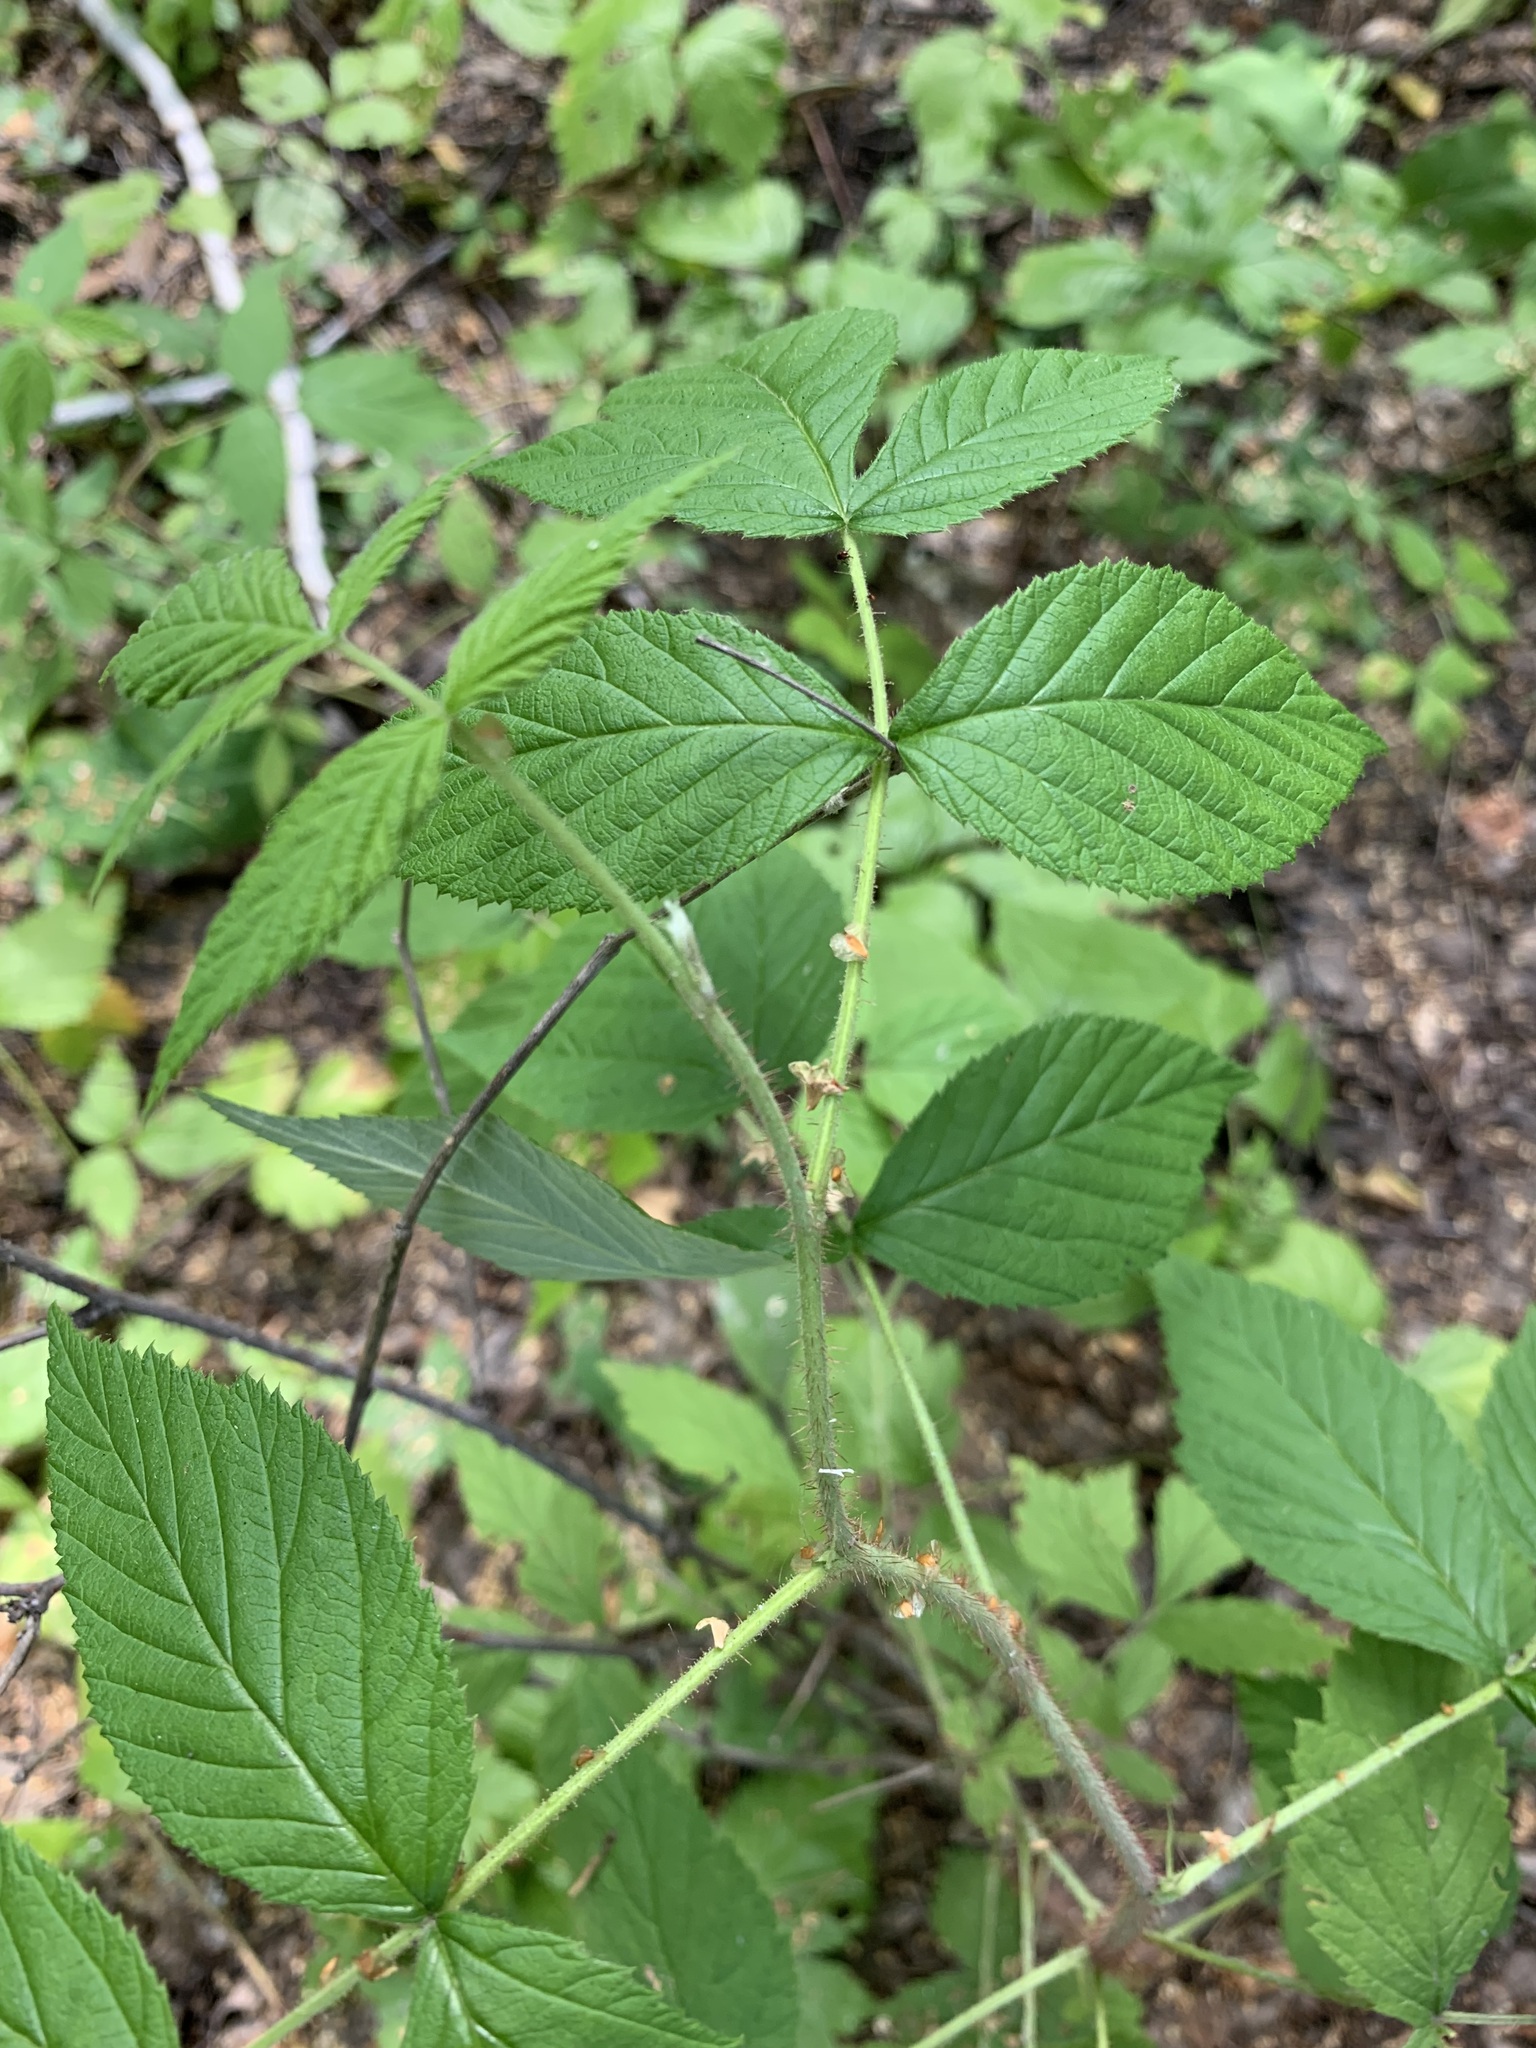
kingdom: Plantae
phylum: Tracheophyta
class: Magnoliopsida
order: Rosales
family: Rosaceae
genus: Rubus
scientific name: Rubus sachalinensis
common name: Red raspberry
